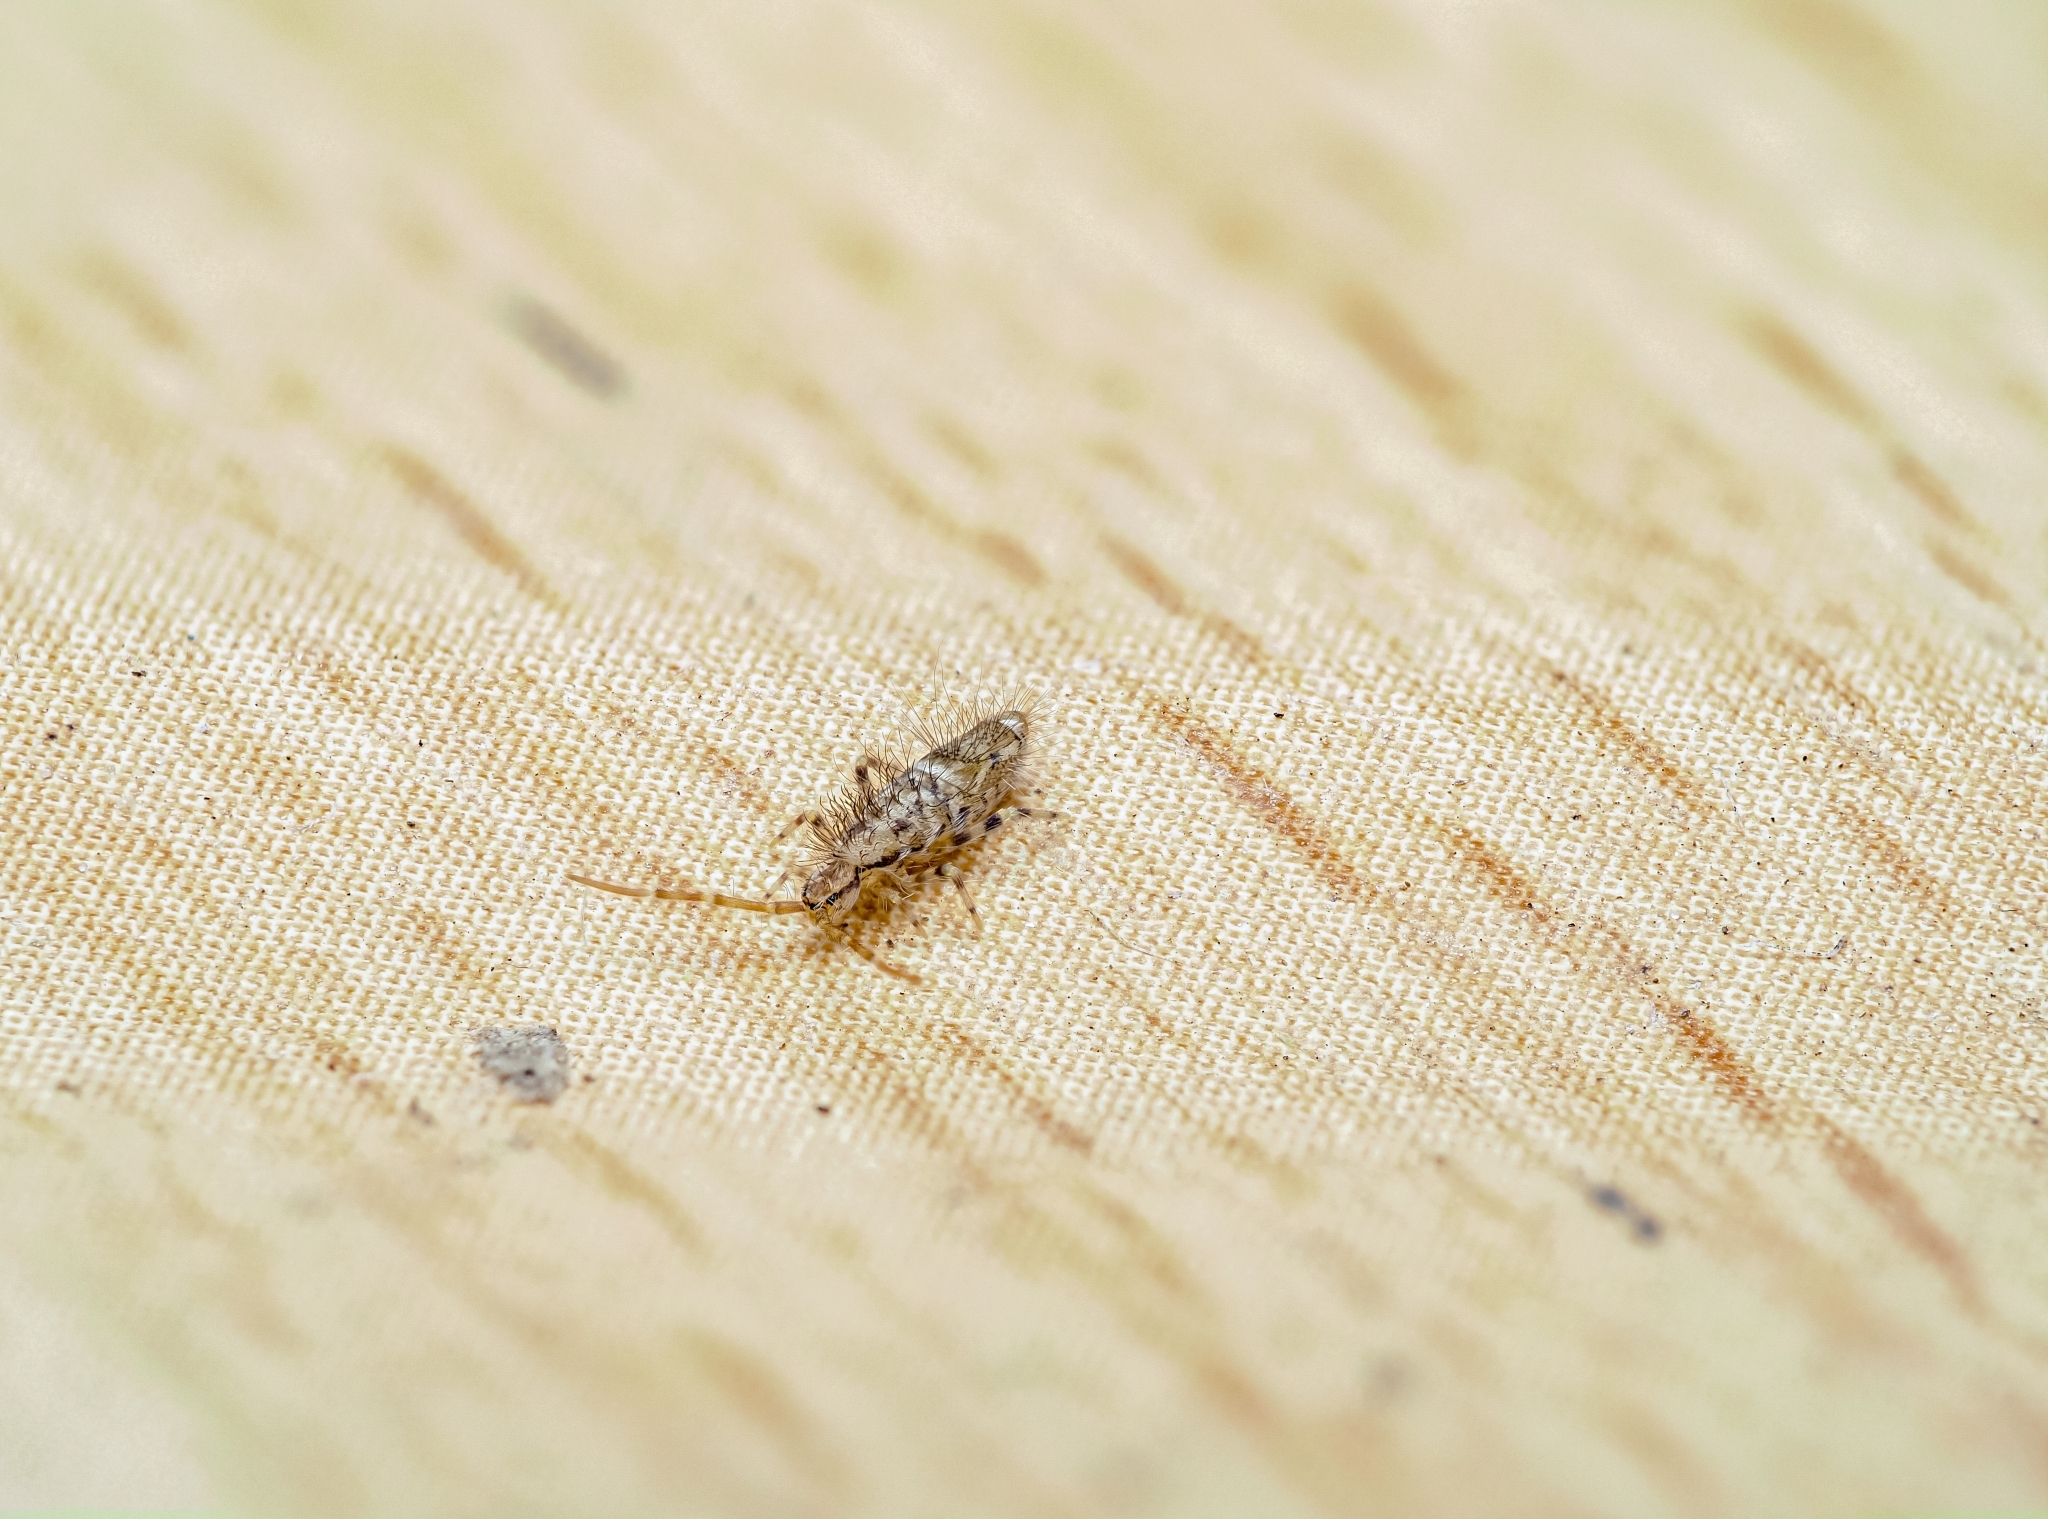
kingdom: Animalia
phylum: Arthropoda
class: Collembola
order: Entomobryomorpha
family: Entomobryidae
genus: Entomobrya
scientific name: Entomobrya dorsalis
